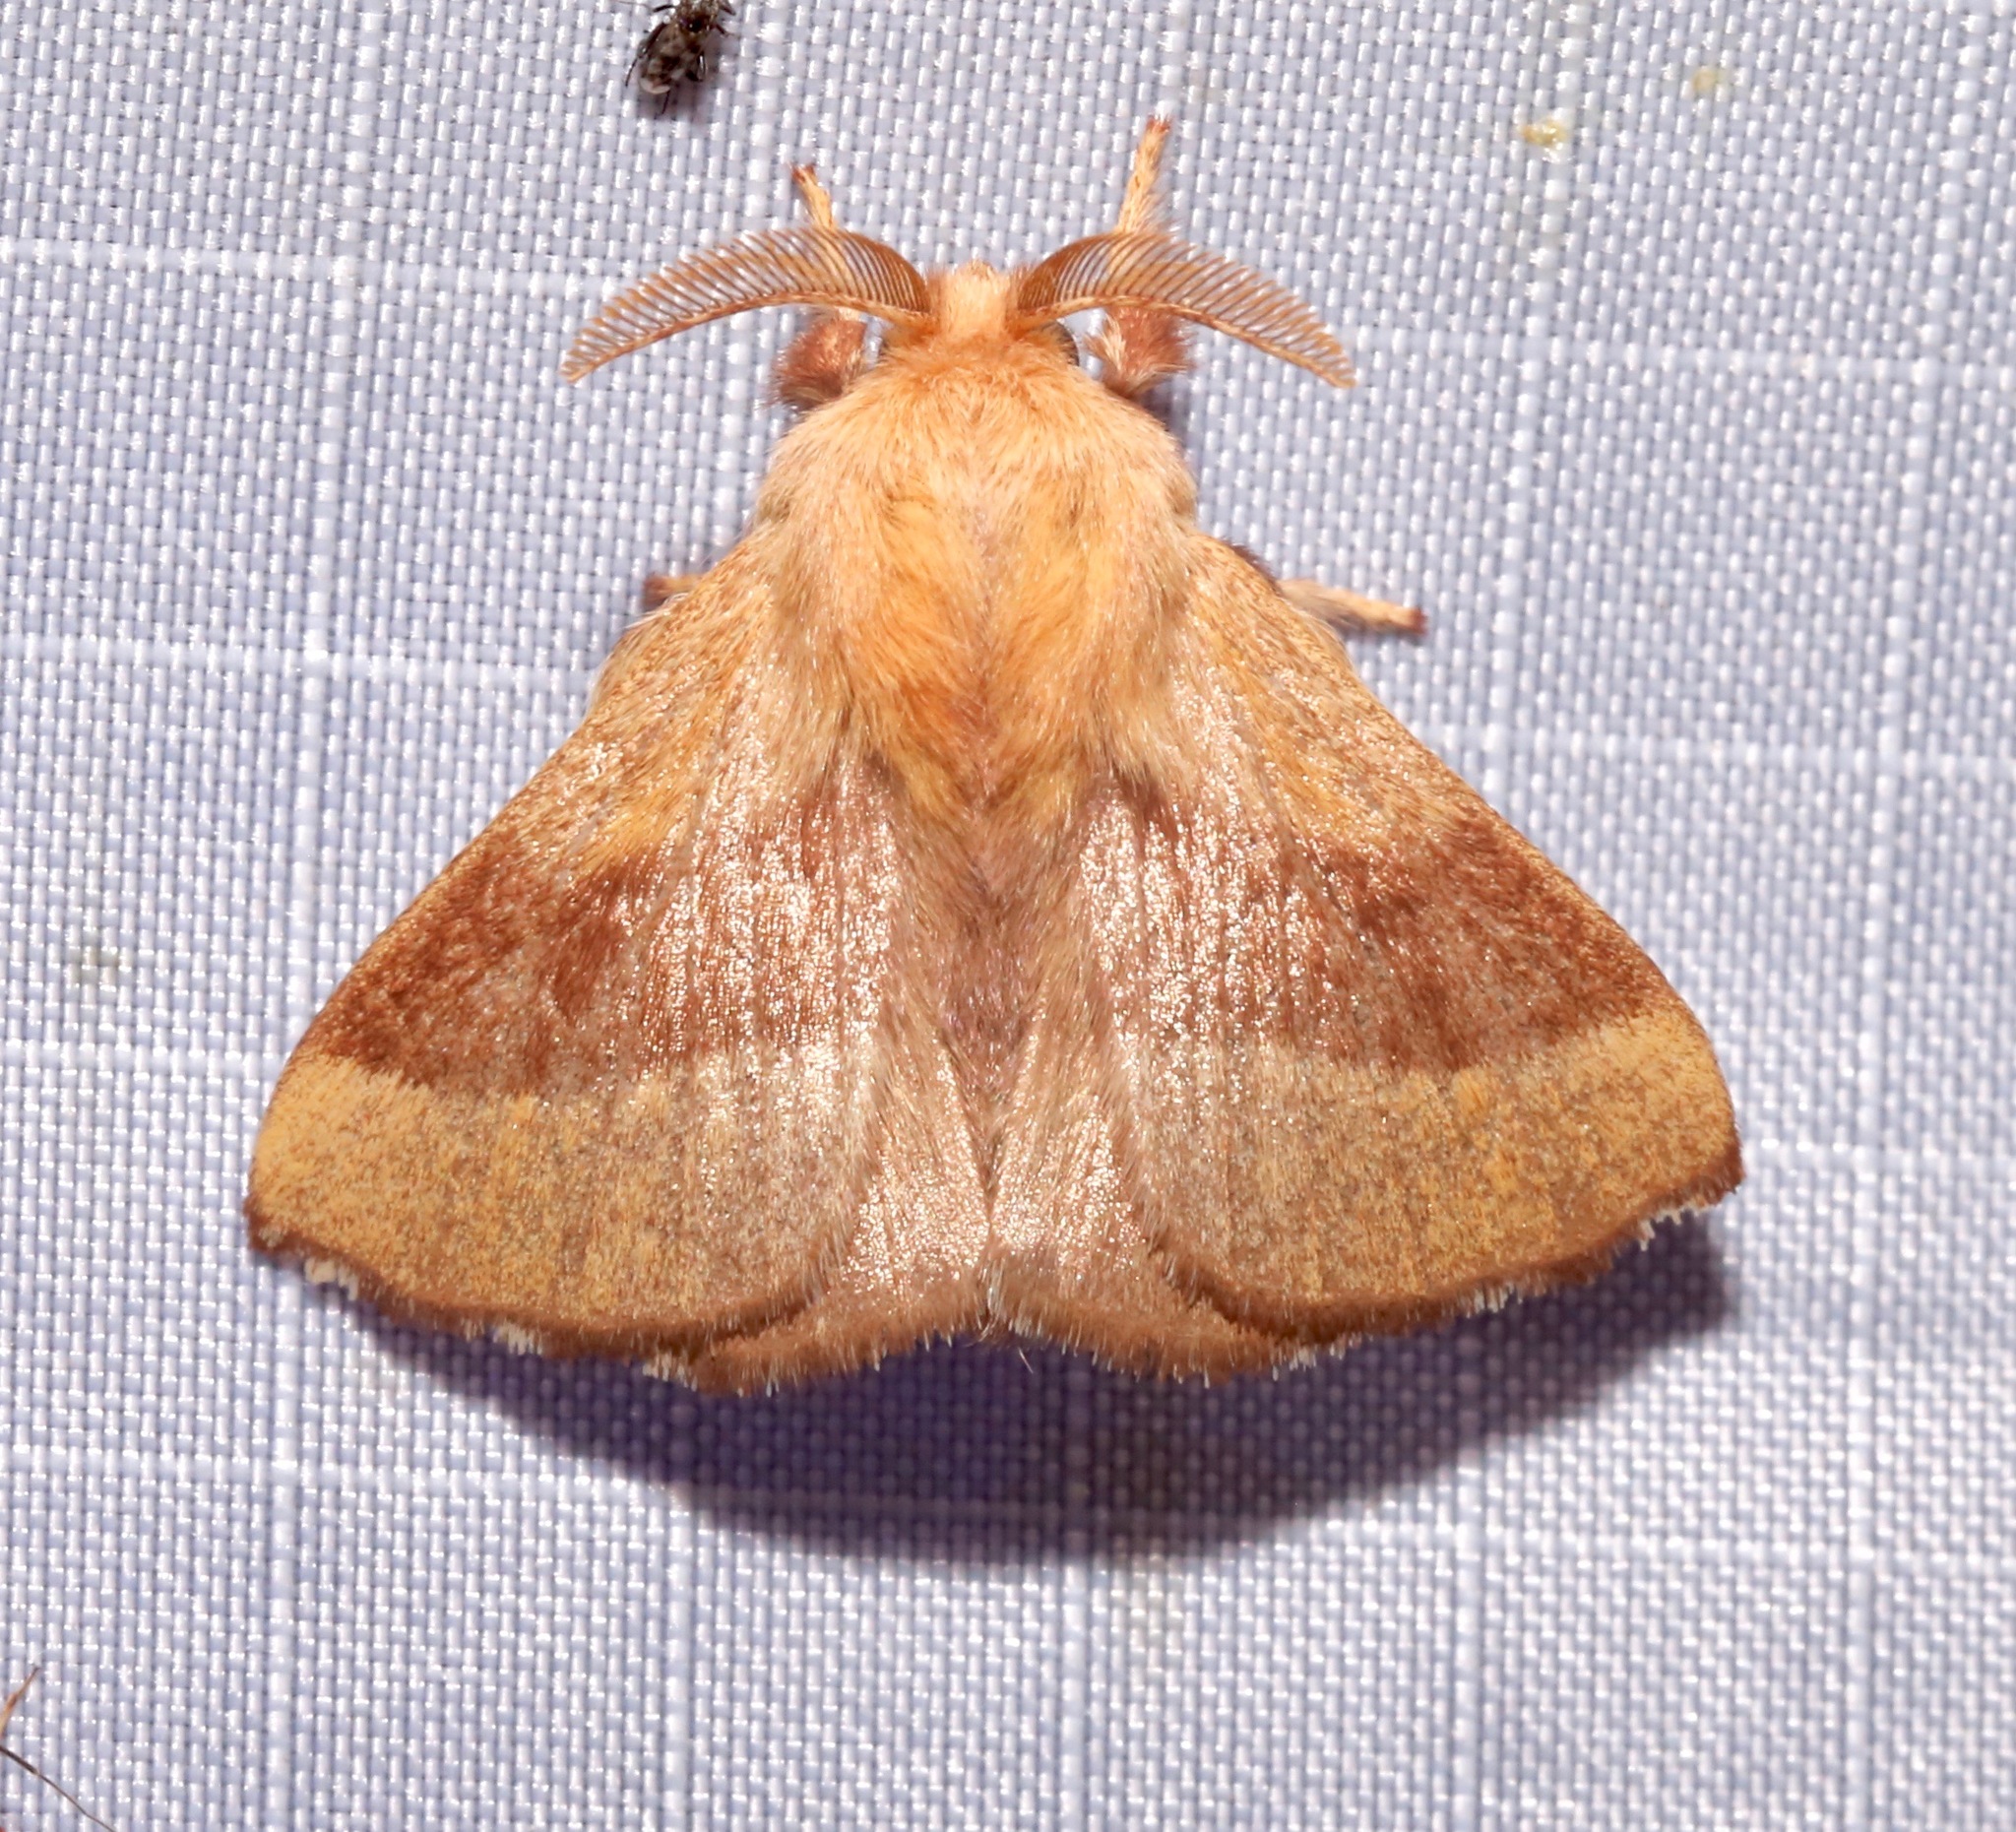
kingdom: Animalia
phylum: Arthropoda
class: Insecta
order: Lepidoptera
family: Lasiocampidae
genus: Malacosoma
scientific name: Malacosoma disstria
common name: Forest tent caterpillar
